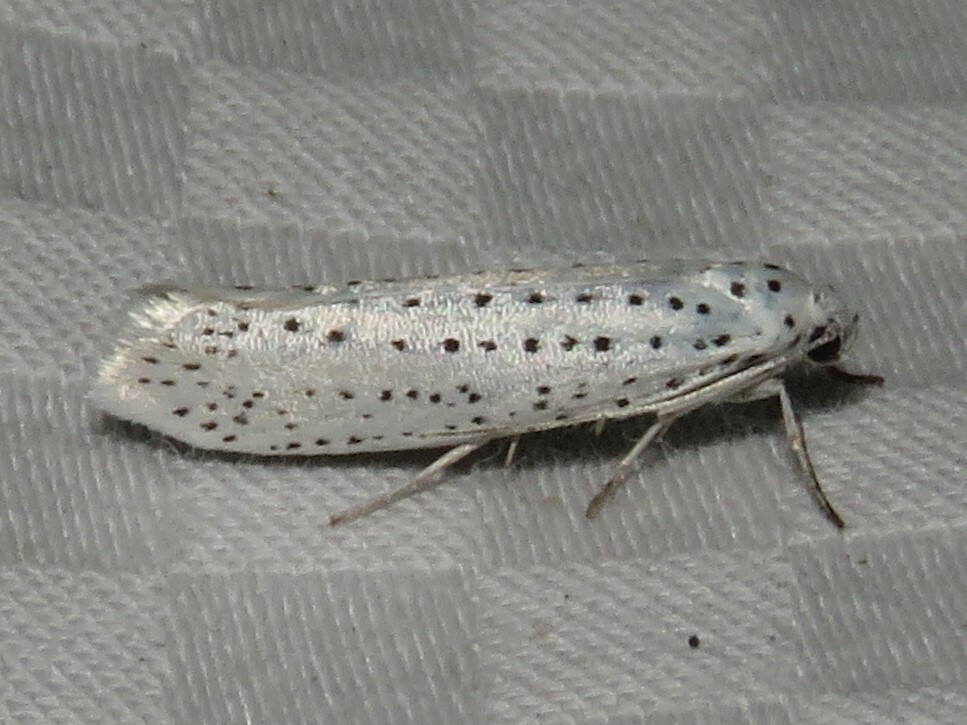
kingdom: Animalia
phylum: Arthropoda
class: Insecta
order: Lepidoptera
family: Yponomeutidae
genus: Yponomeuta
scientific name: Yponomeuta multipunctella
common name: American ermine moth
